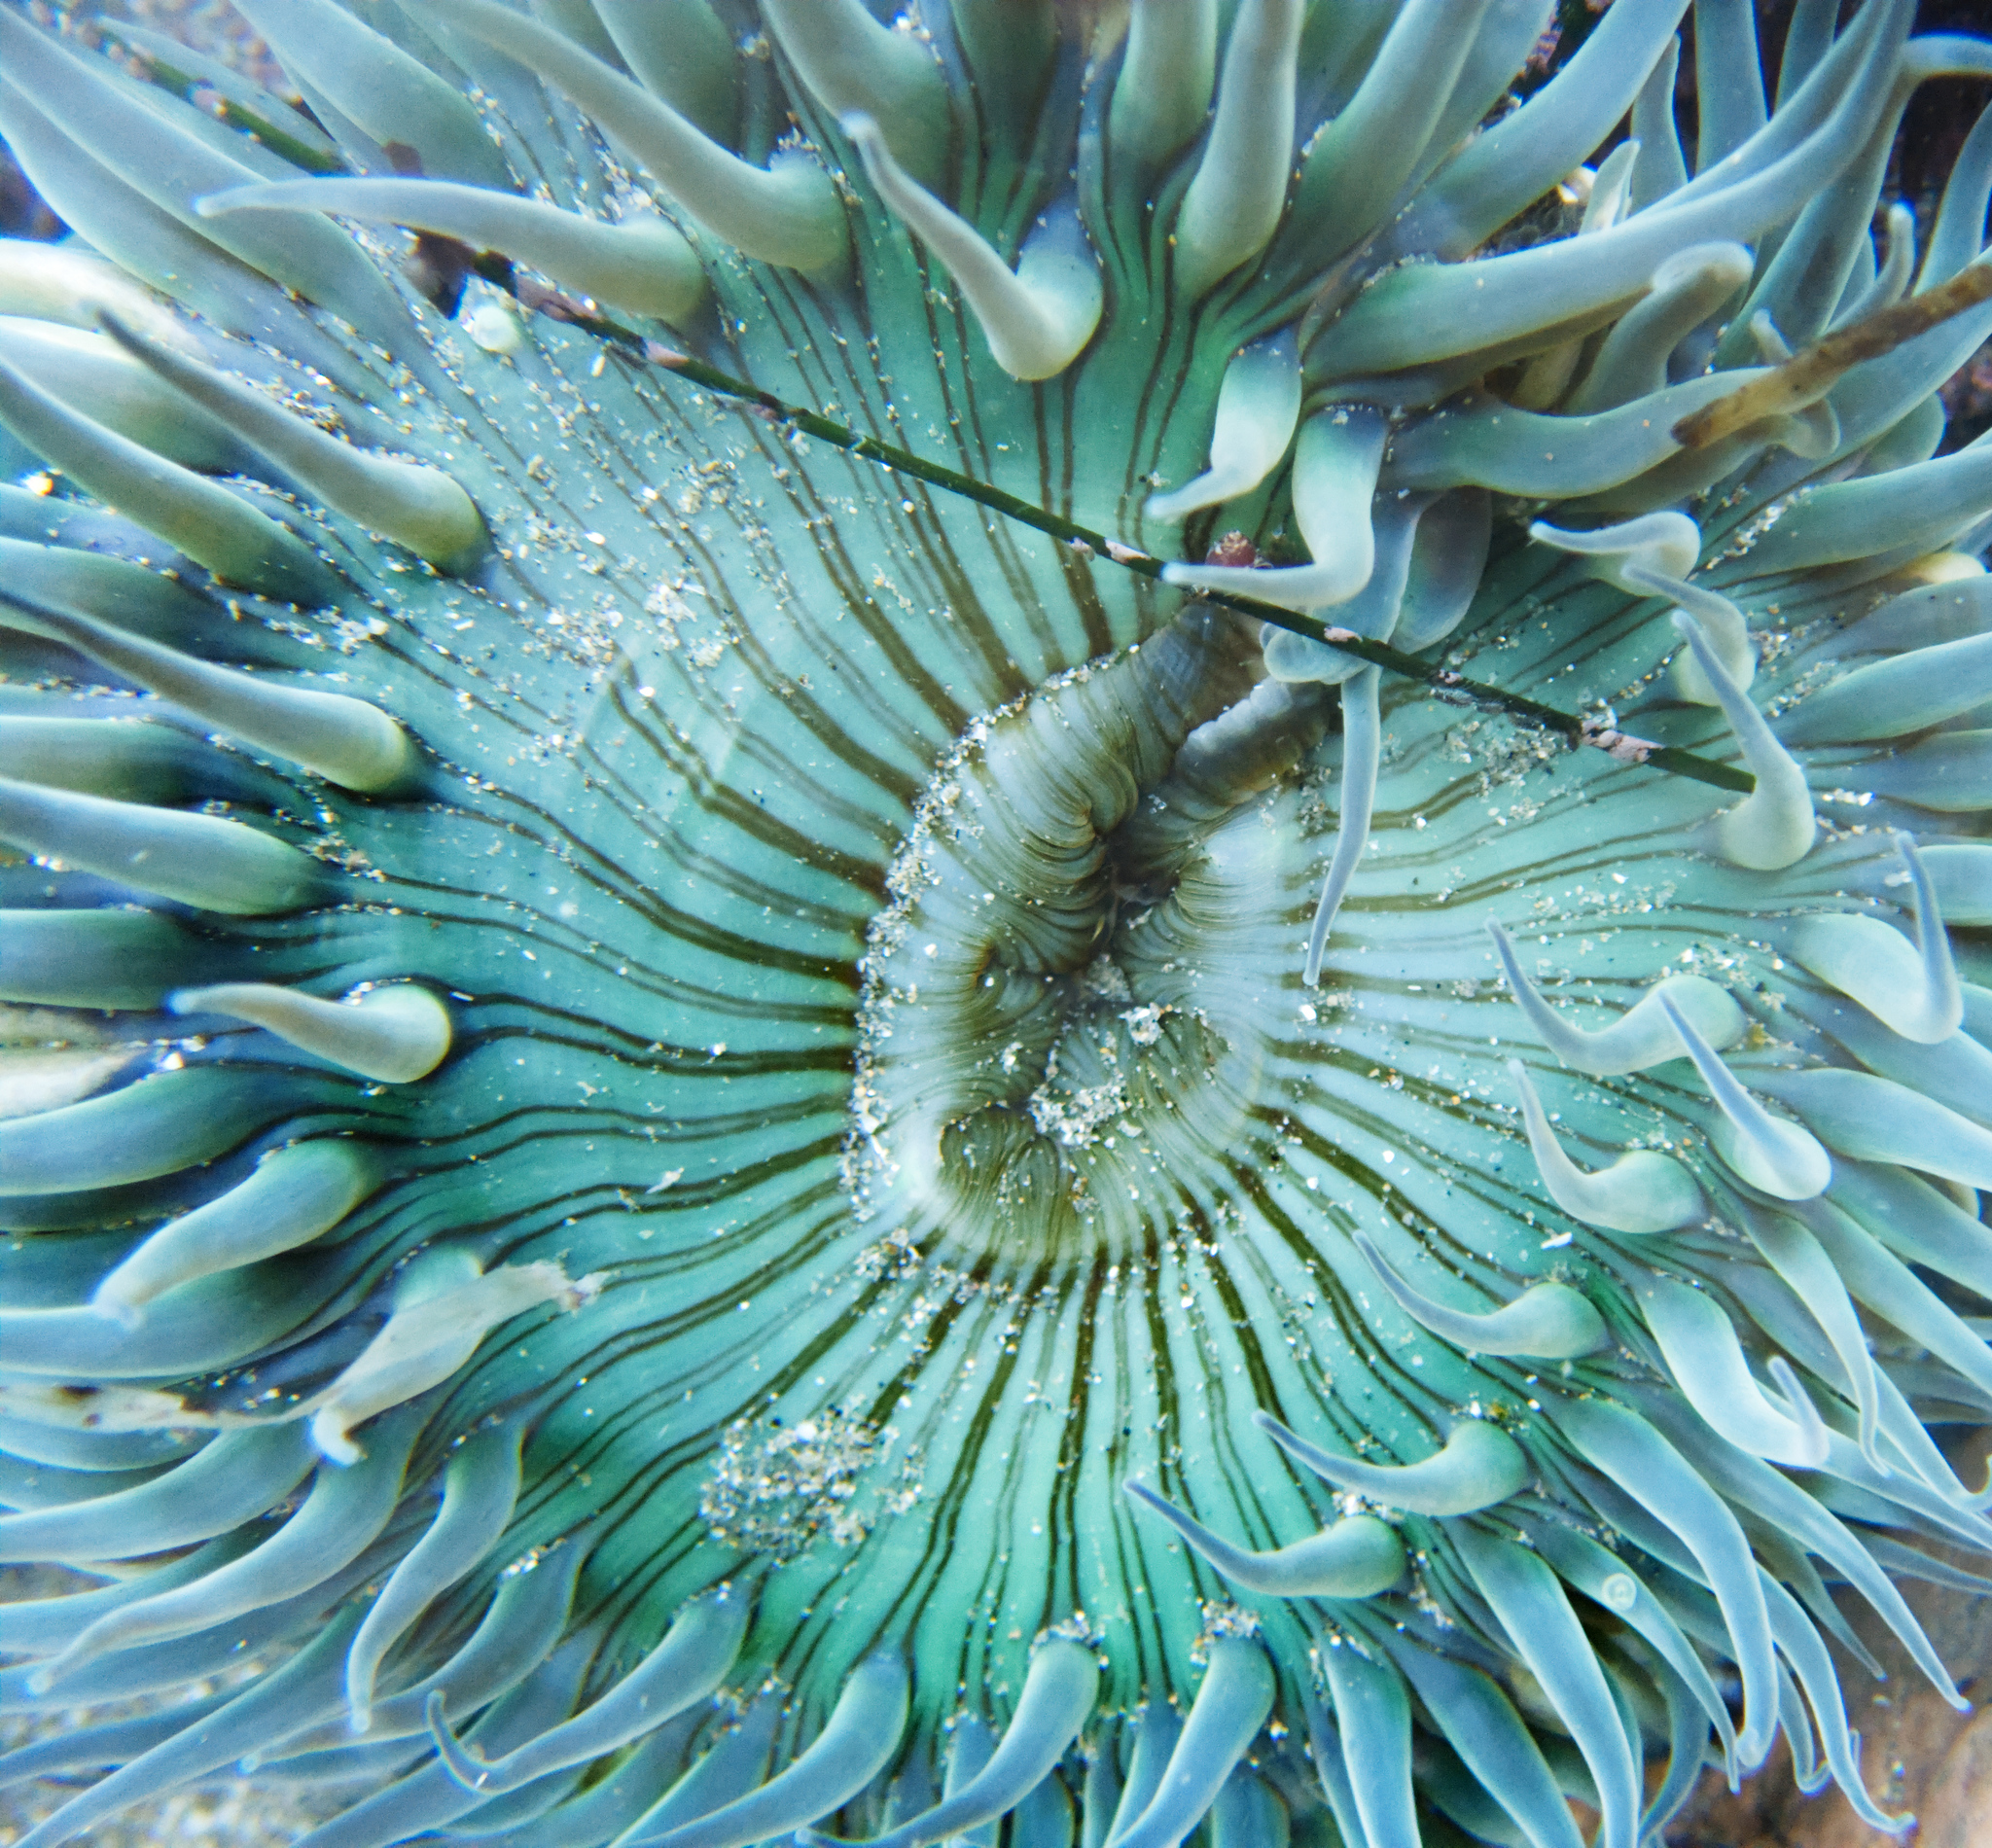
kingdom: Animalia
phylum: Cnidaria
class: Anthozoa
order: Actiniaria
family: Actiniidae
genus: Anthopleura
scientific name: Anthopleura sola
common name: Sun anemone
